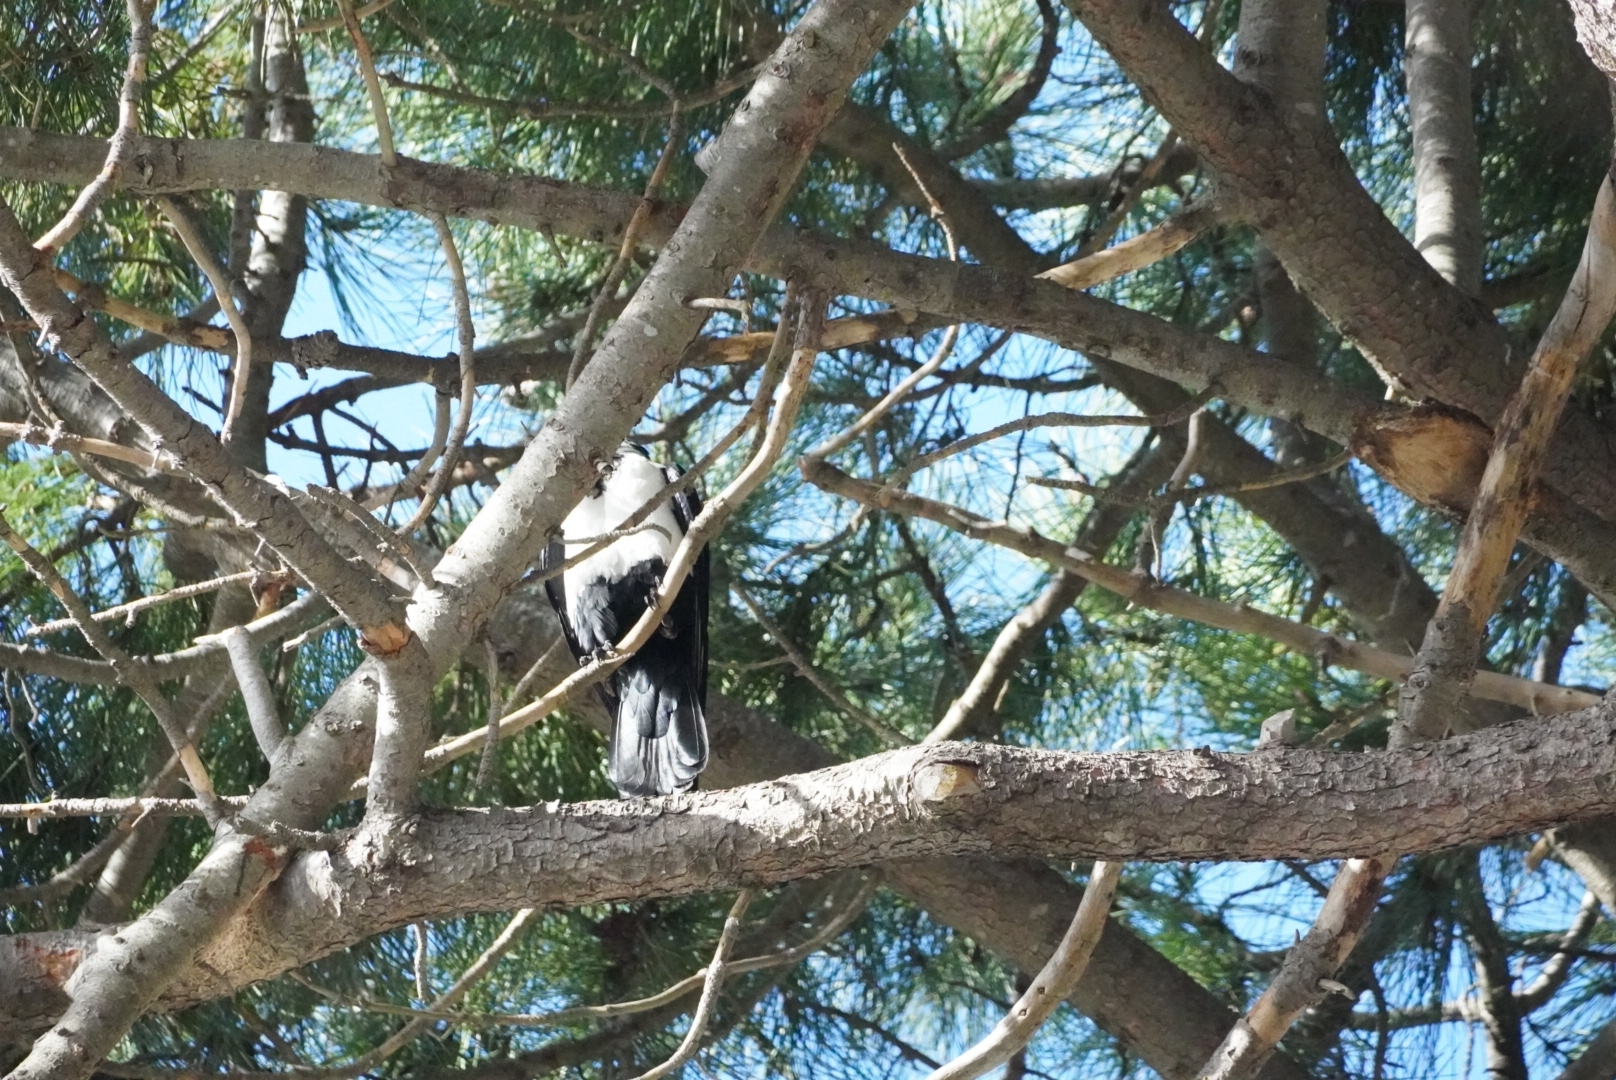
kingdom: Animalia
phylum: Chordata
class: Aves
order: Passeriformes
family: Corvidae
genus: Corvus
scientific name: Corvus albus
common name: Pied crow
